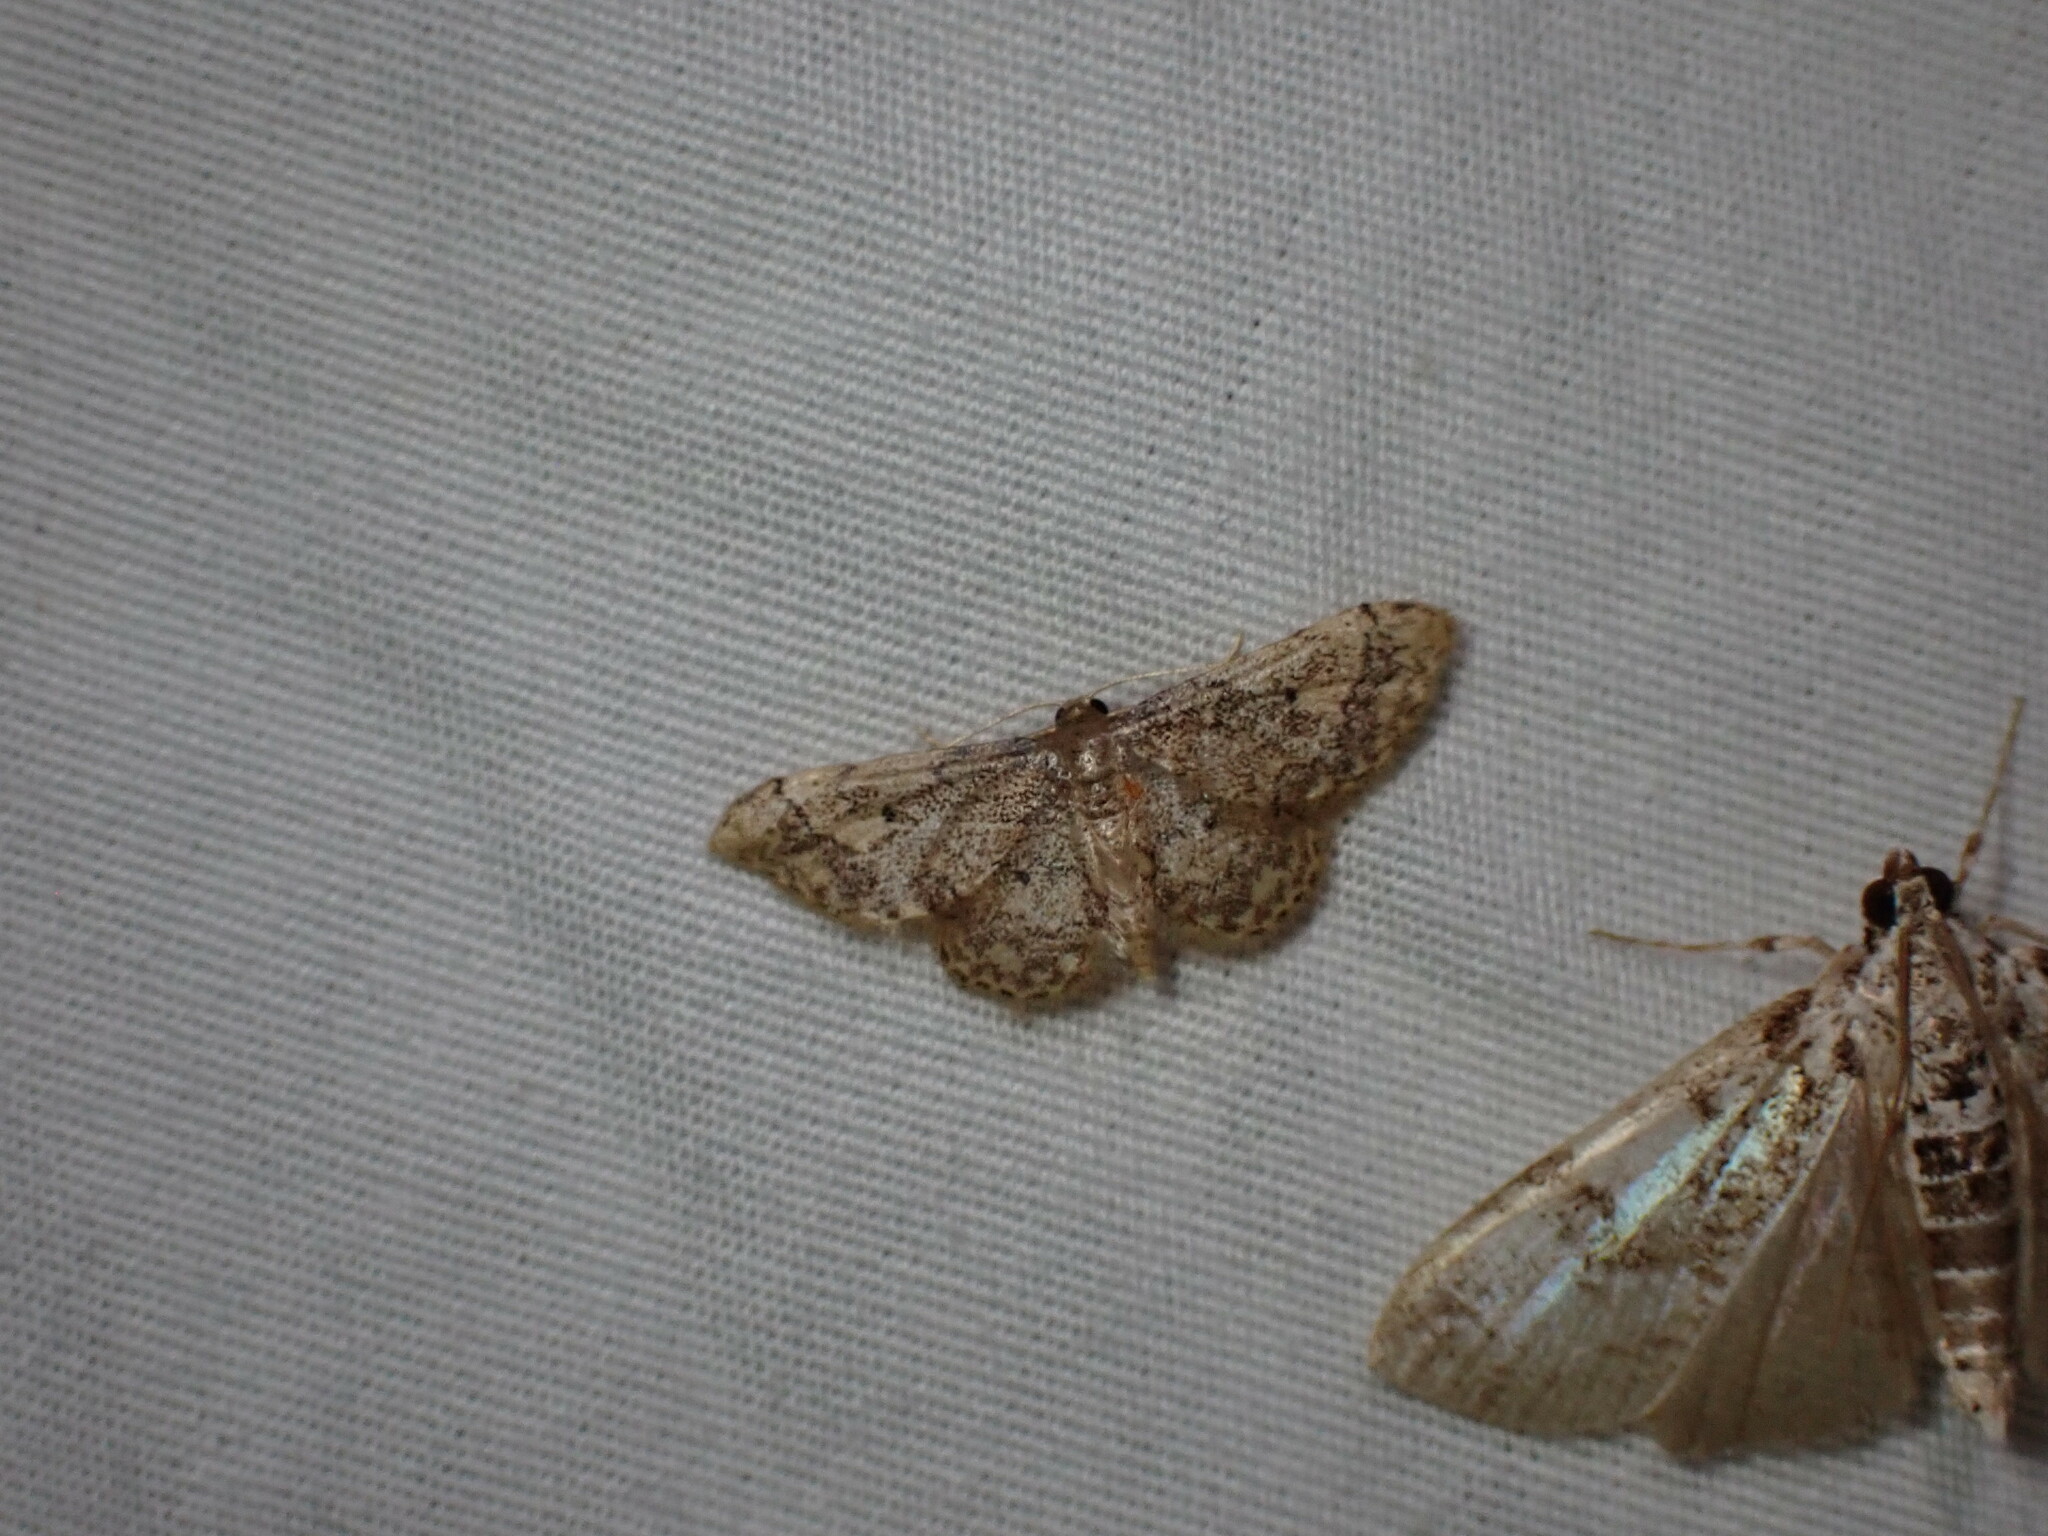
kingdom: Animalia
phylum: Arthropoda
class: Insecta
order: Lepidoptera
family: Geometridae
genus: Idaea
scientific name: Idaea celtima
